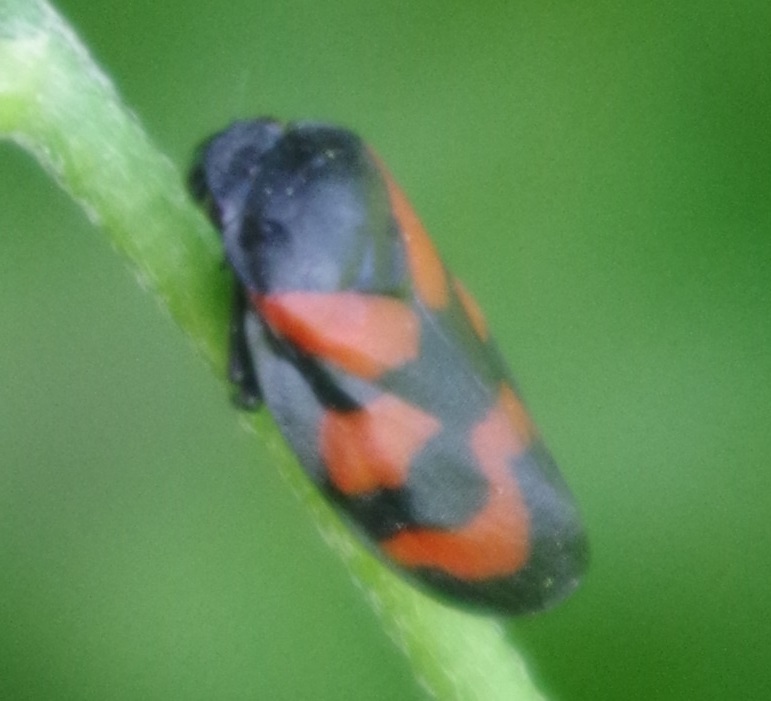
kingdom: Animalia
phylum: Arthropoda
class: Insecta
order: Hemiptera
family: Cercopidae
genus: Cercopis
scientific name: Cercopis vulnerata
